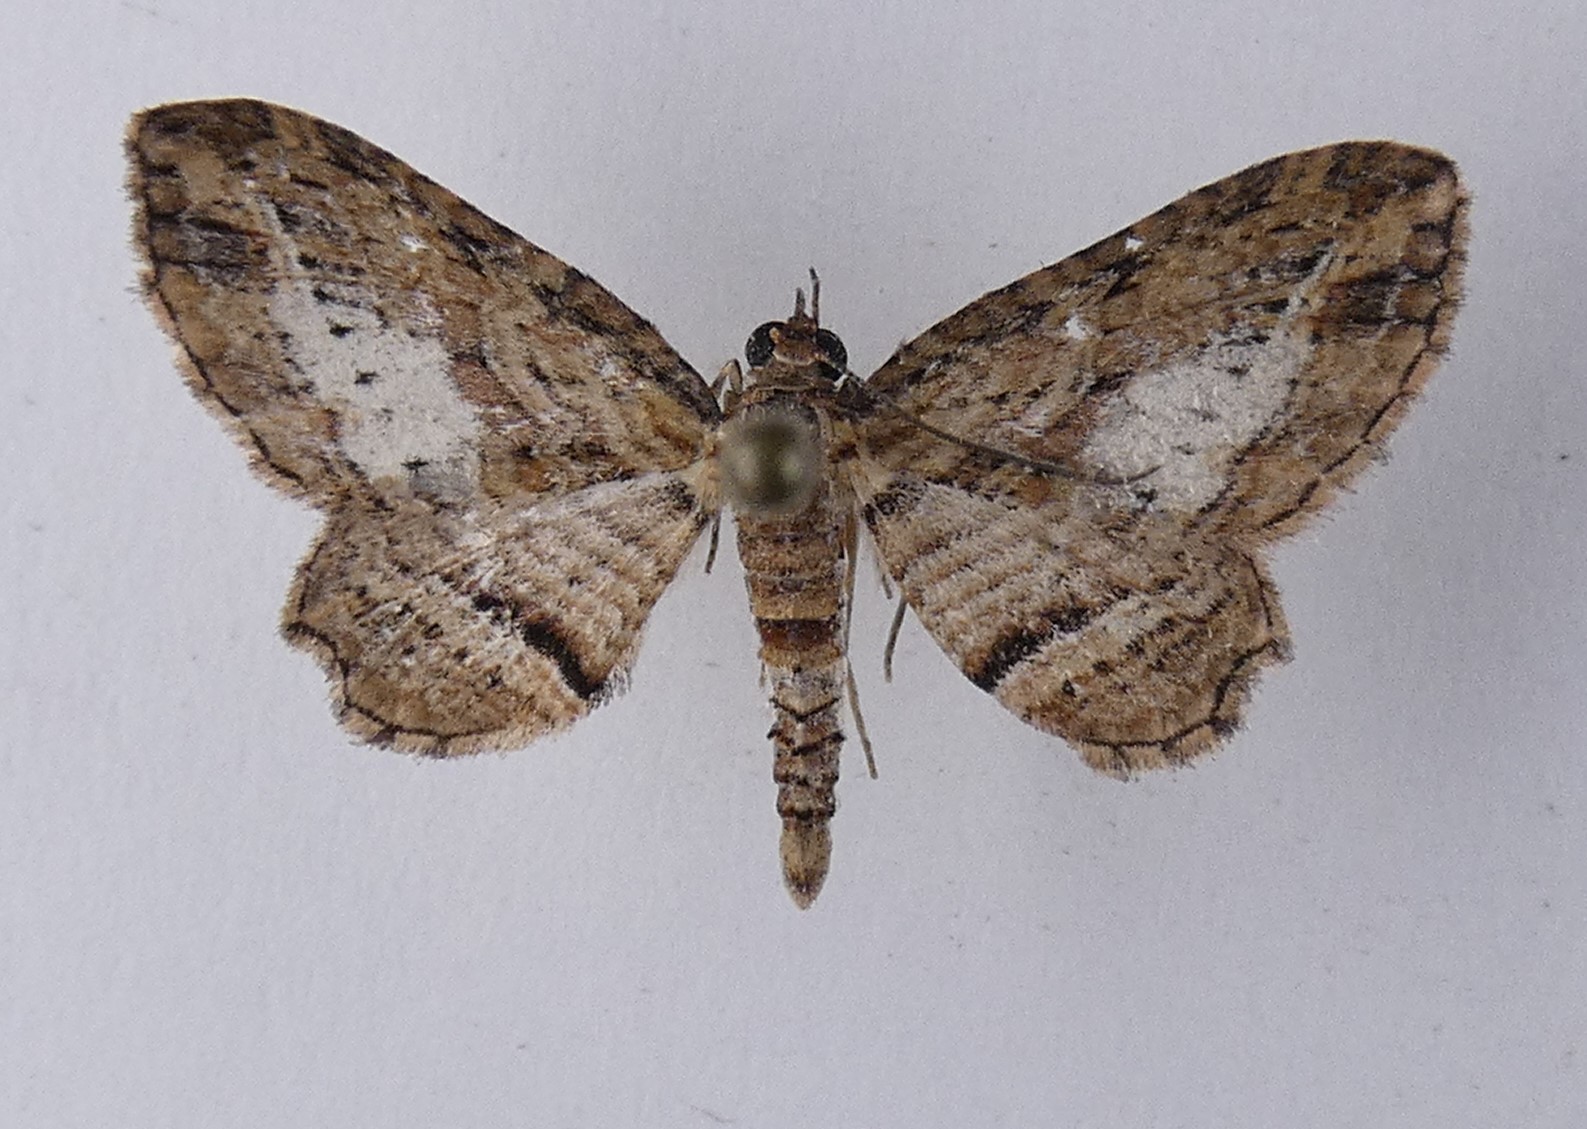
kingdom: Animalia
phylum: Arthropoda
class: Insecta
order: Lepidoptera
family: Geometridae
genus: Chloroclystis
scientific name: Chloroclystis filata
